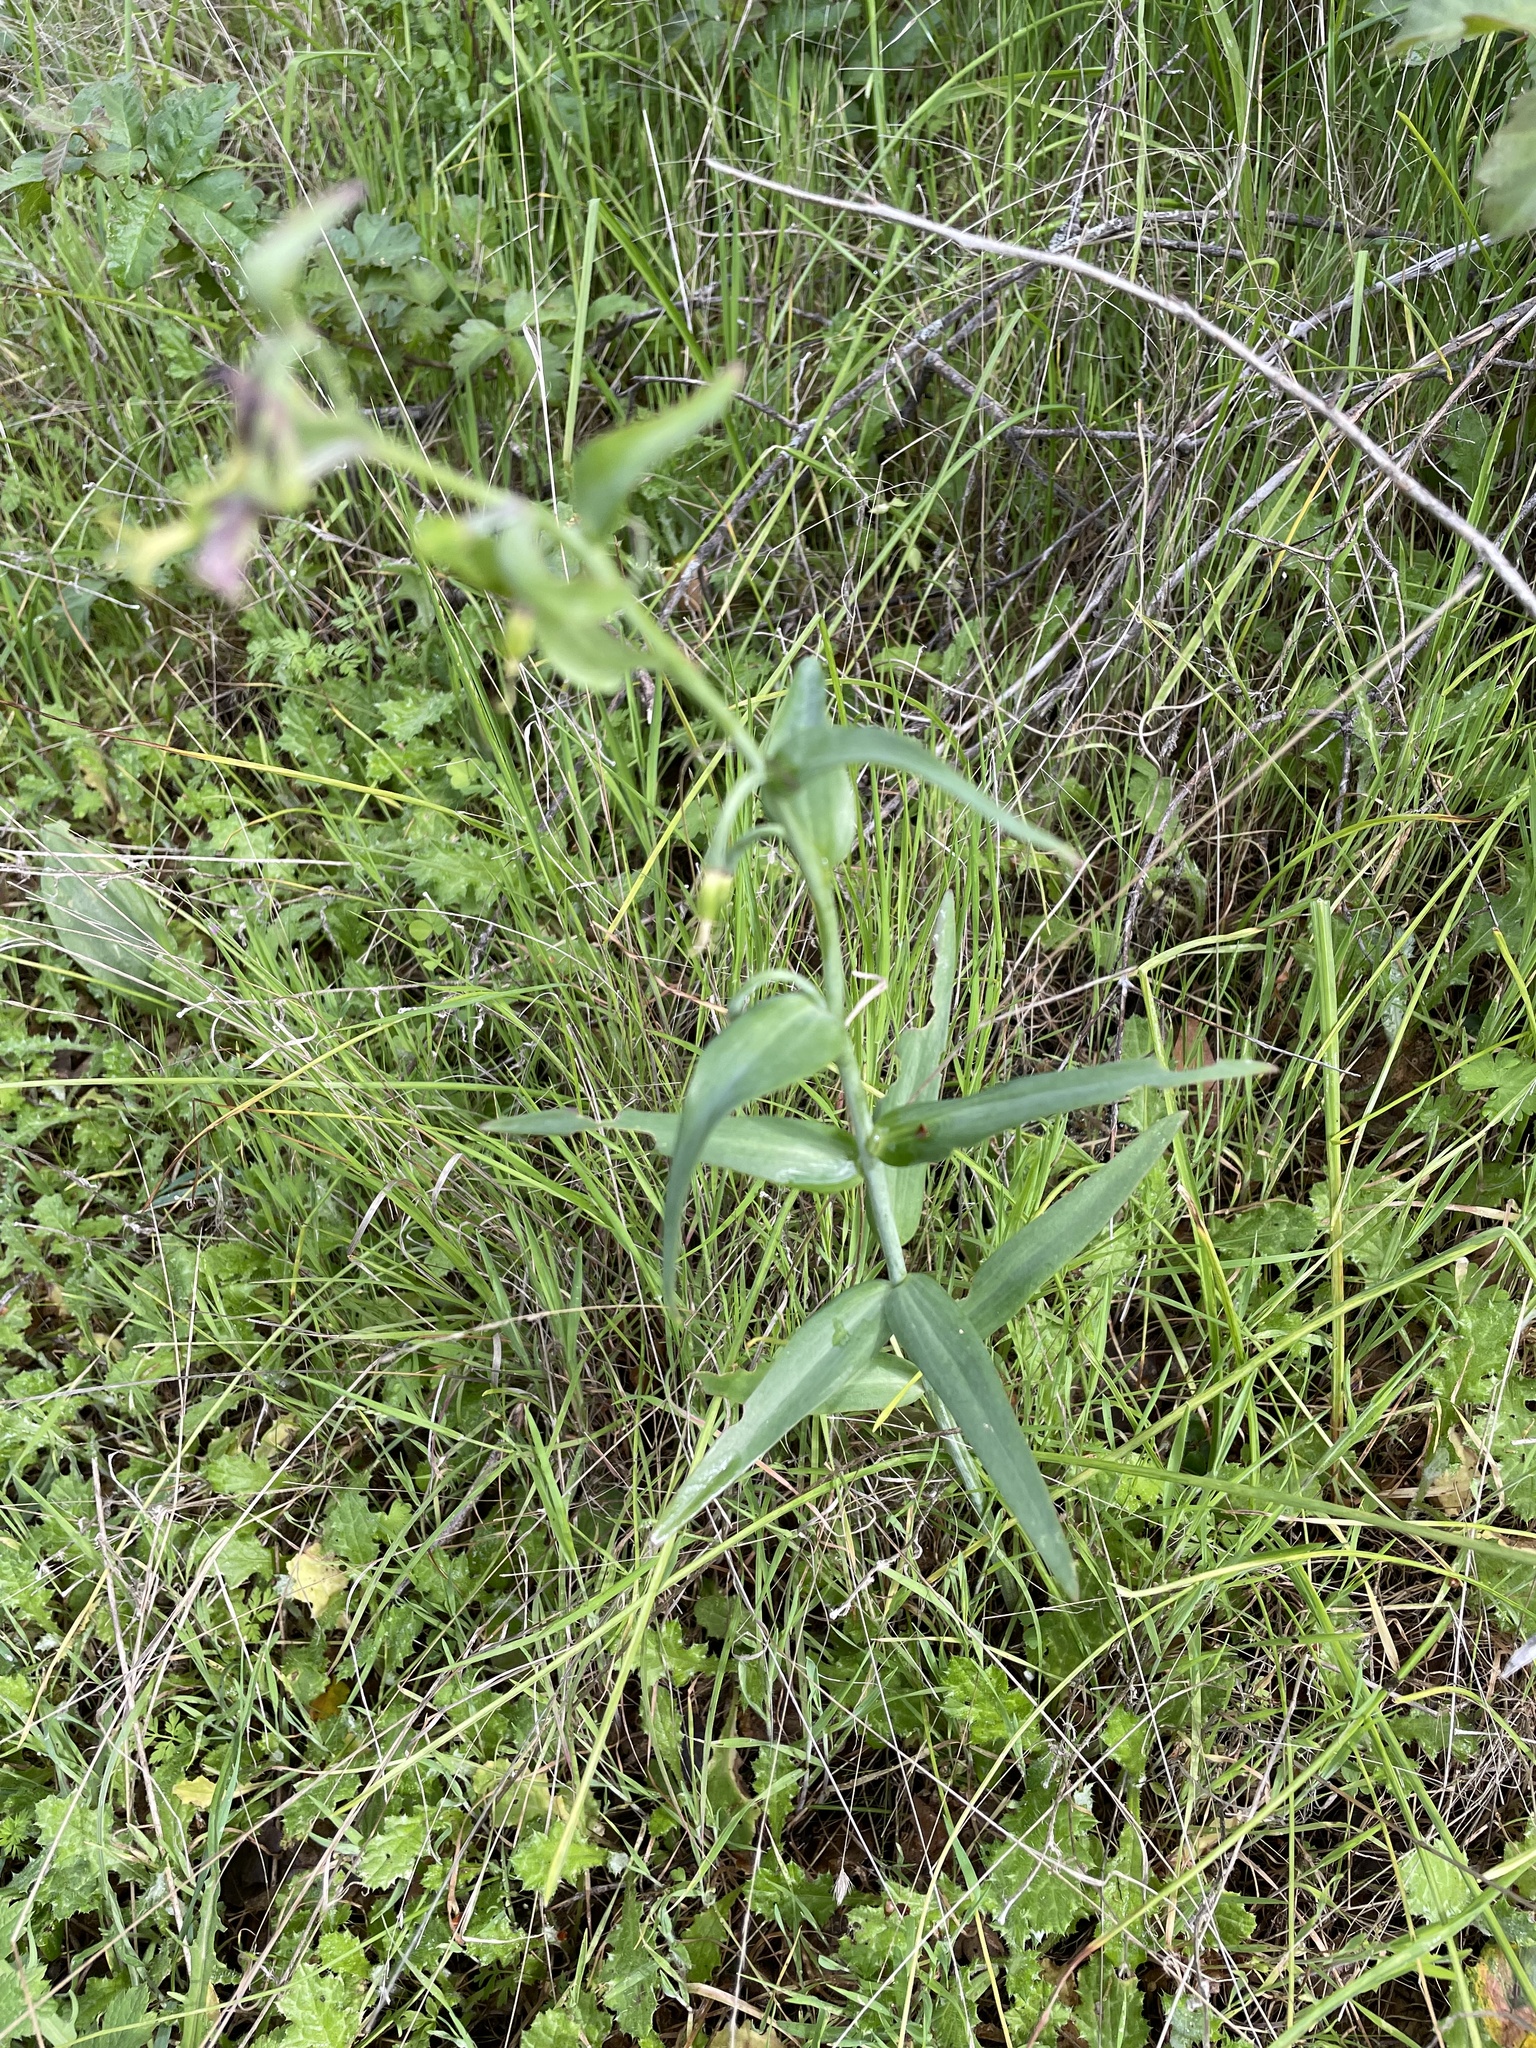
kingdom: Plantae
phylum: Tracheophyta
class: Liliopsida
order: Liliales
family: Liliaceae
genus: Fritillaria
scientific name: Fritillaria affinis
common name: Ojai fritillary
